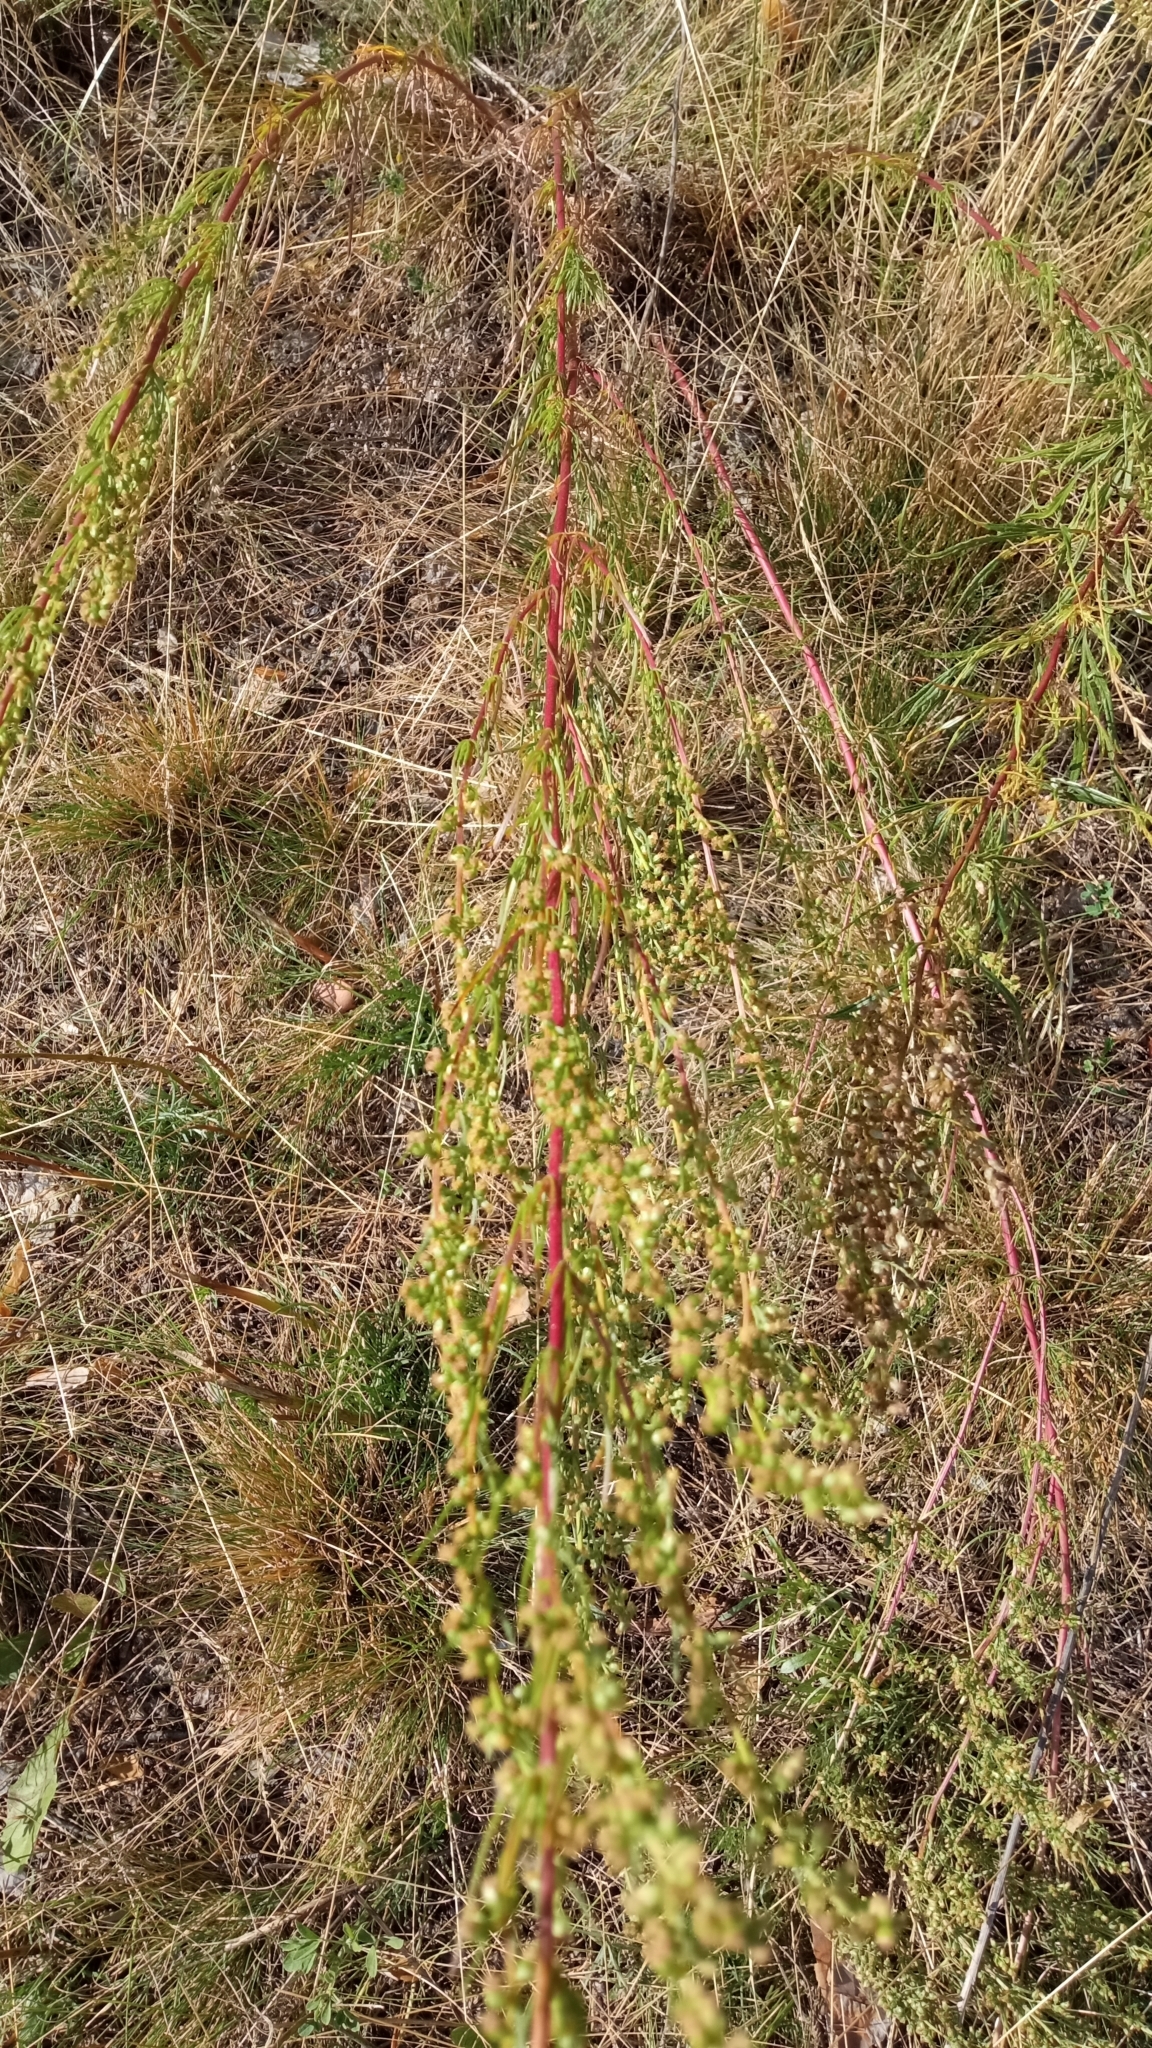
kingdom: Plantae
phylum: Tracheophyta
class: Magnoliopsida
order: Asterales
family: Asteraceae
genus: Artemisia
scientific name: Artemisia marschalliana
